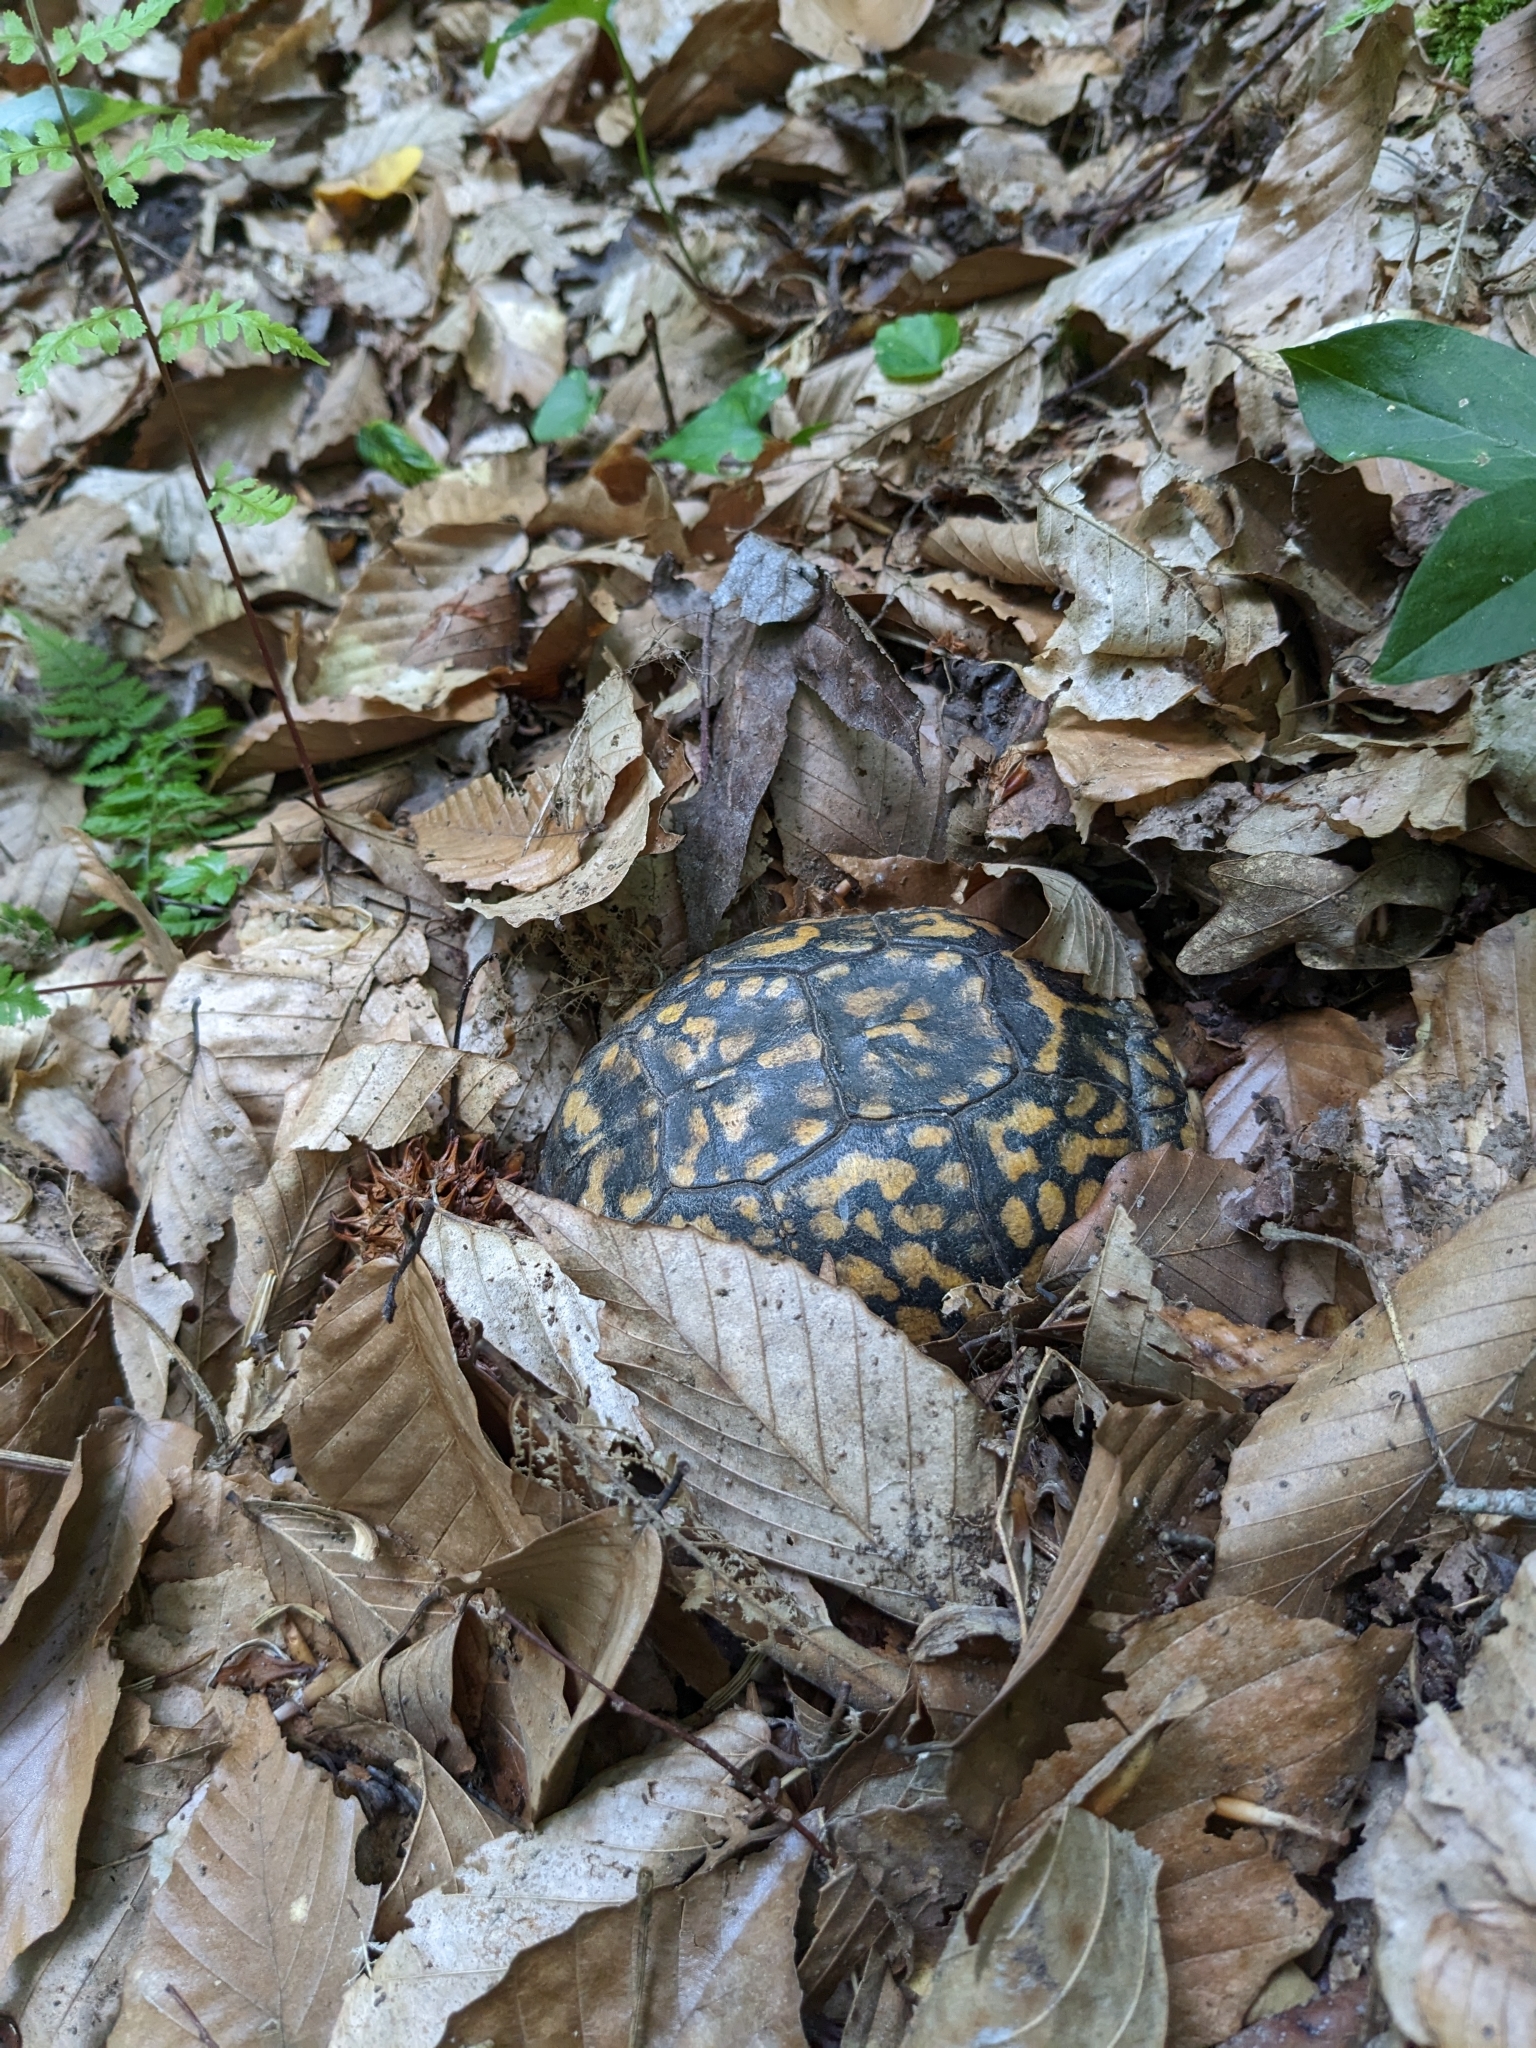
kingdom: Animalia
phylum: Chordata
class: Testudines
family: Emydidae
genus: Terrapene
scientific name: Terrapene carolina
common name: Common box turtle
